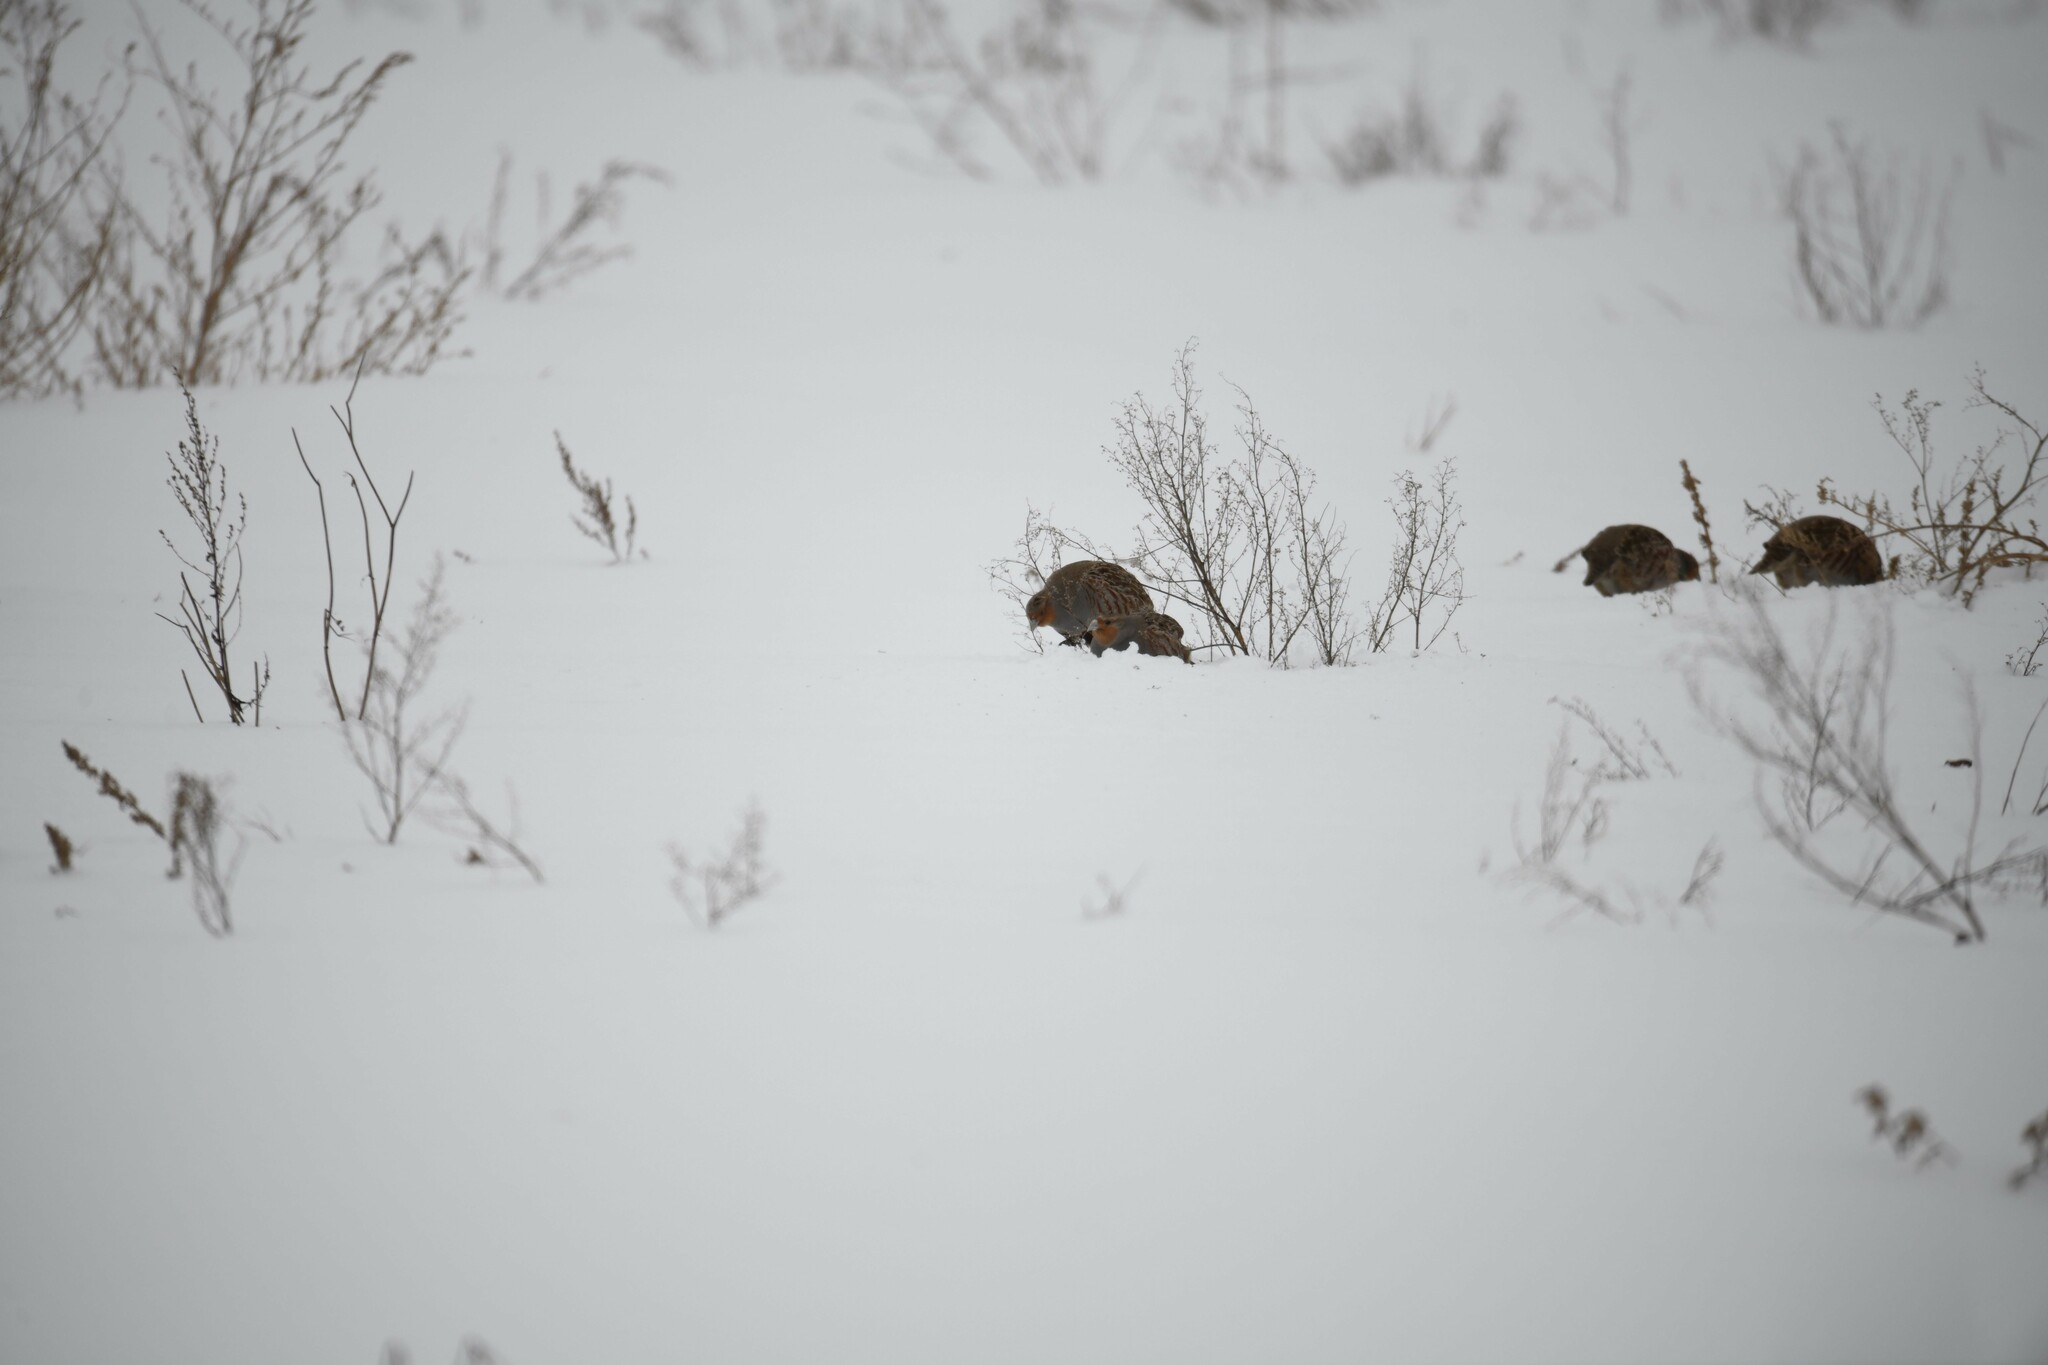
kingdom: Animalia
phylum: Chordata
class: Aves
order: Galliformes
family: Phasianidae
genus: Perdix
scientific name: Perdix perdix
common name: Grey partridge
